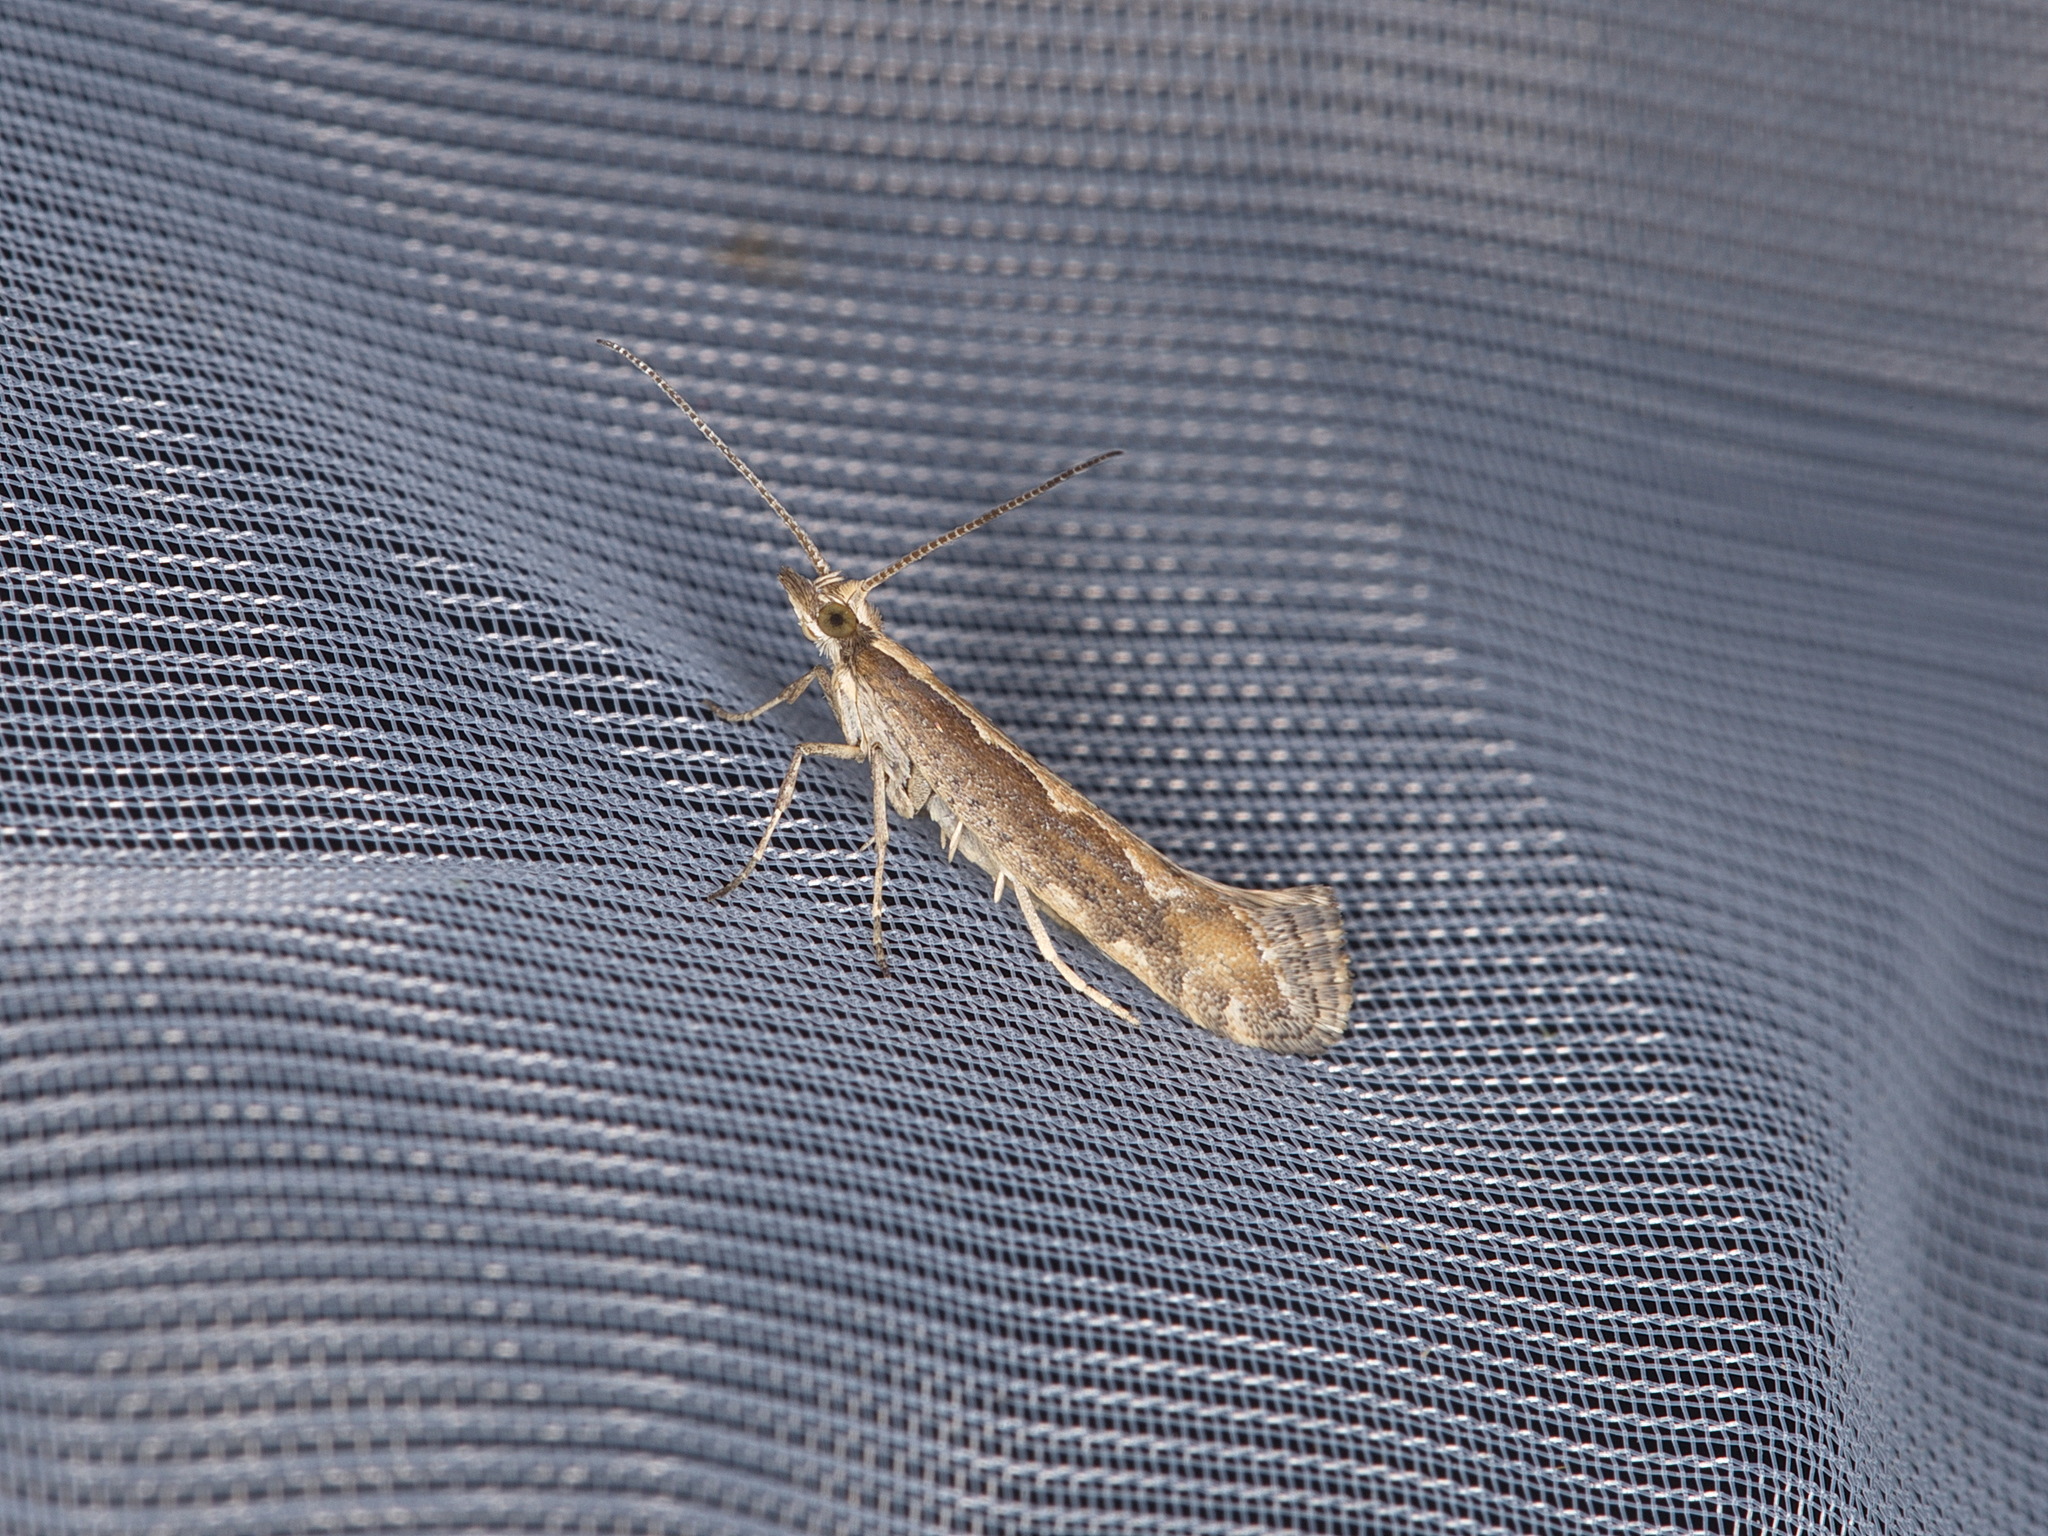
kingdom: Animalia
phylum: Arthropoda
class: Insecta
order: Lepidoptera
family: Plutellidae
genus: Plutella
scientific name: Plutella xylostella
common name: Diamond-back moth
